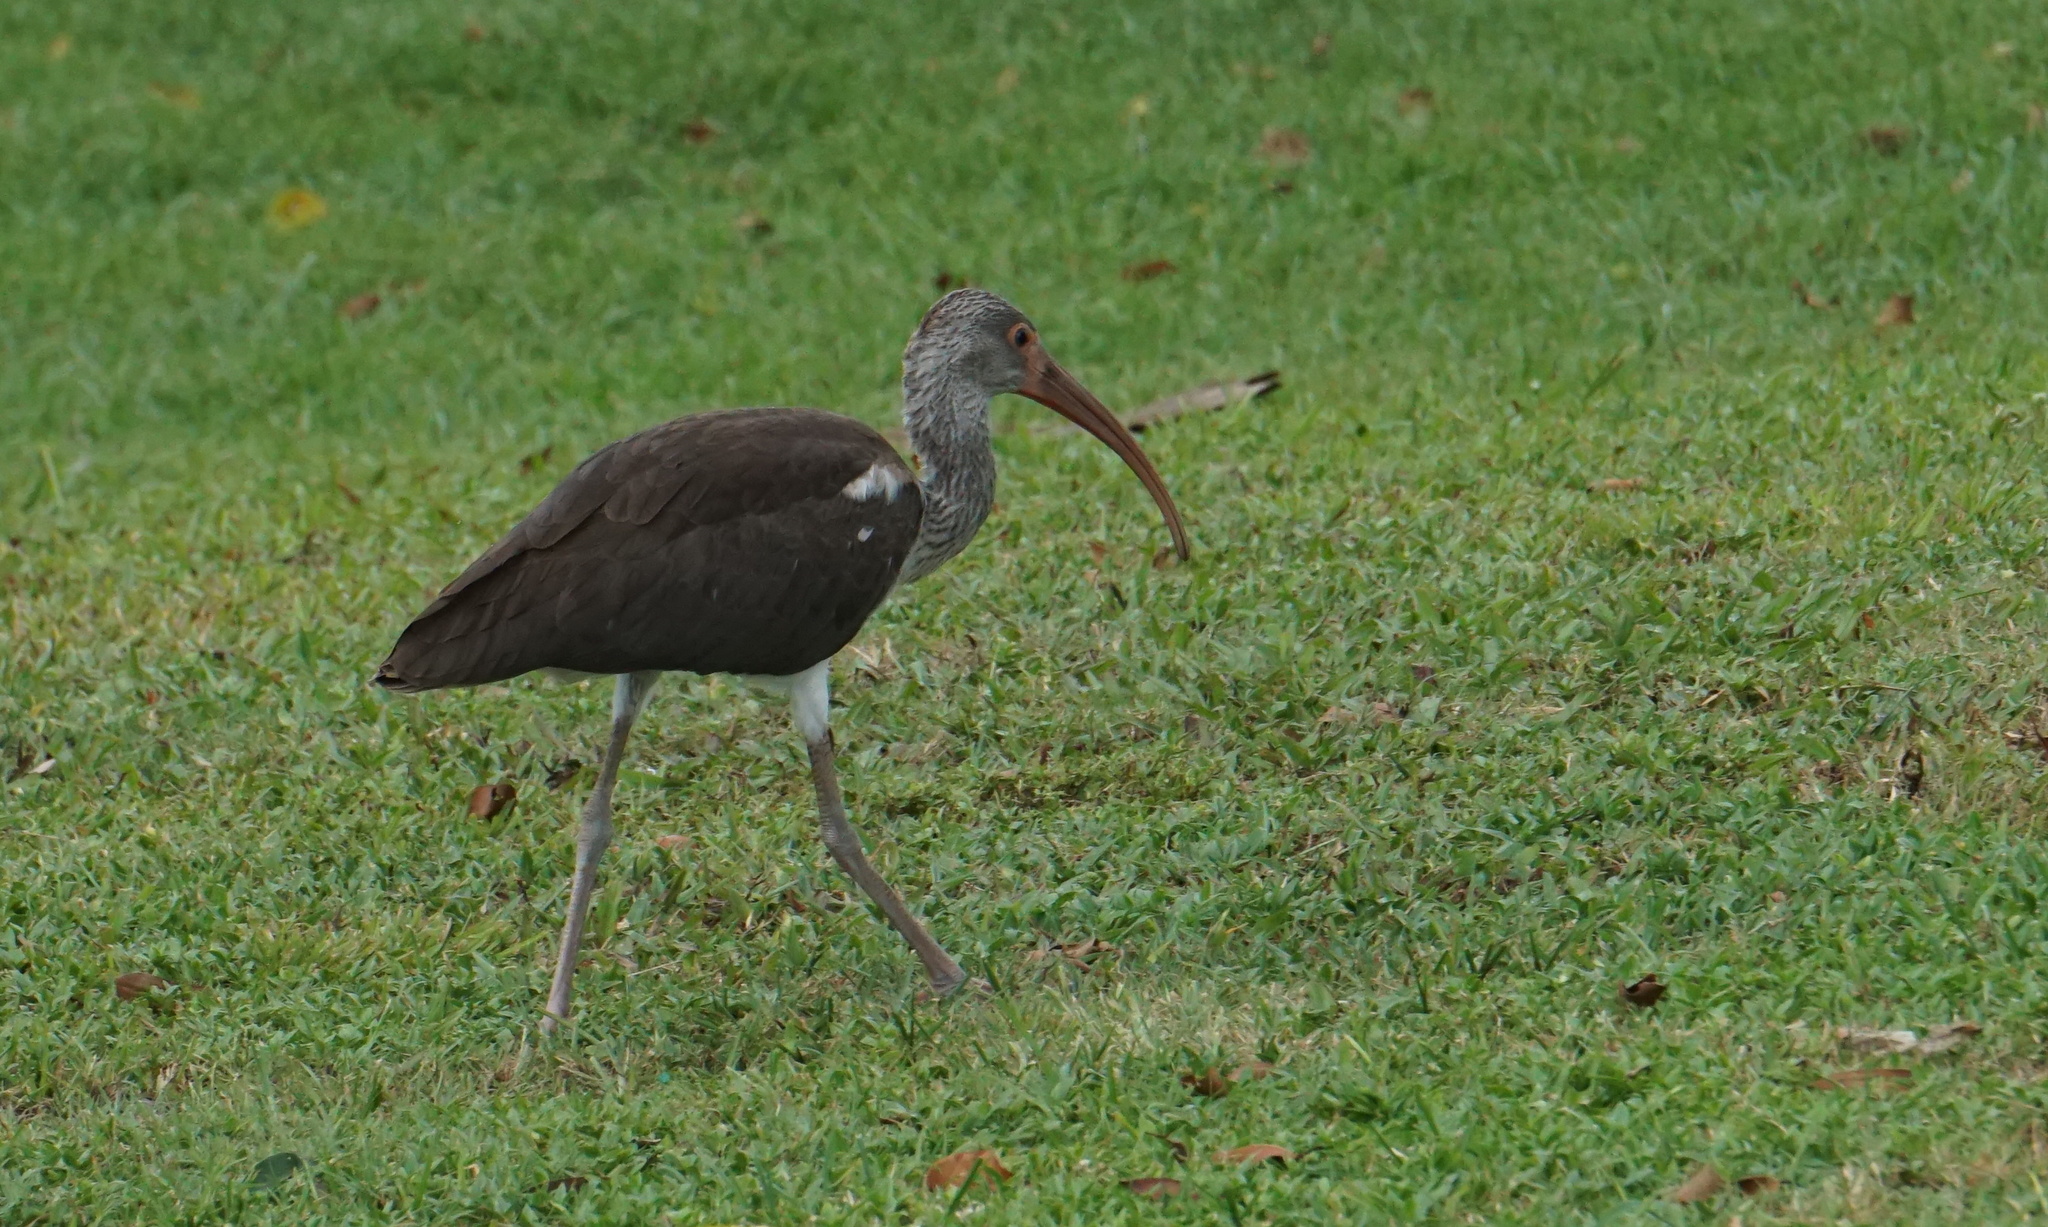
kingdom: Animalia
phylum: Chordata
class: Aves
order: Pelecaniformes
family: Threskiornithidae
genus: Eudocimus
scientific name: Eudocimus albus
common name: White ibis
